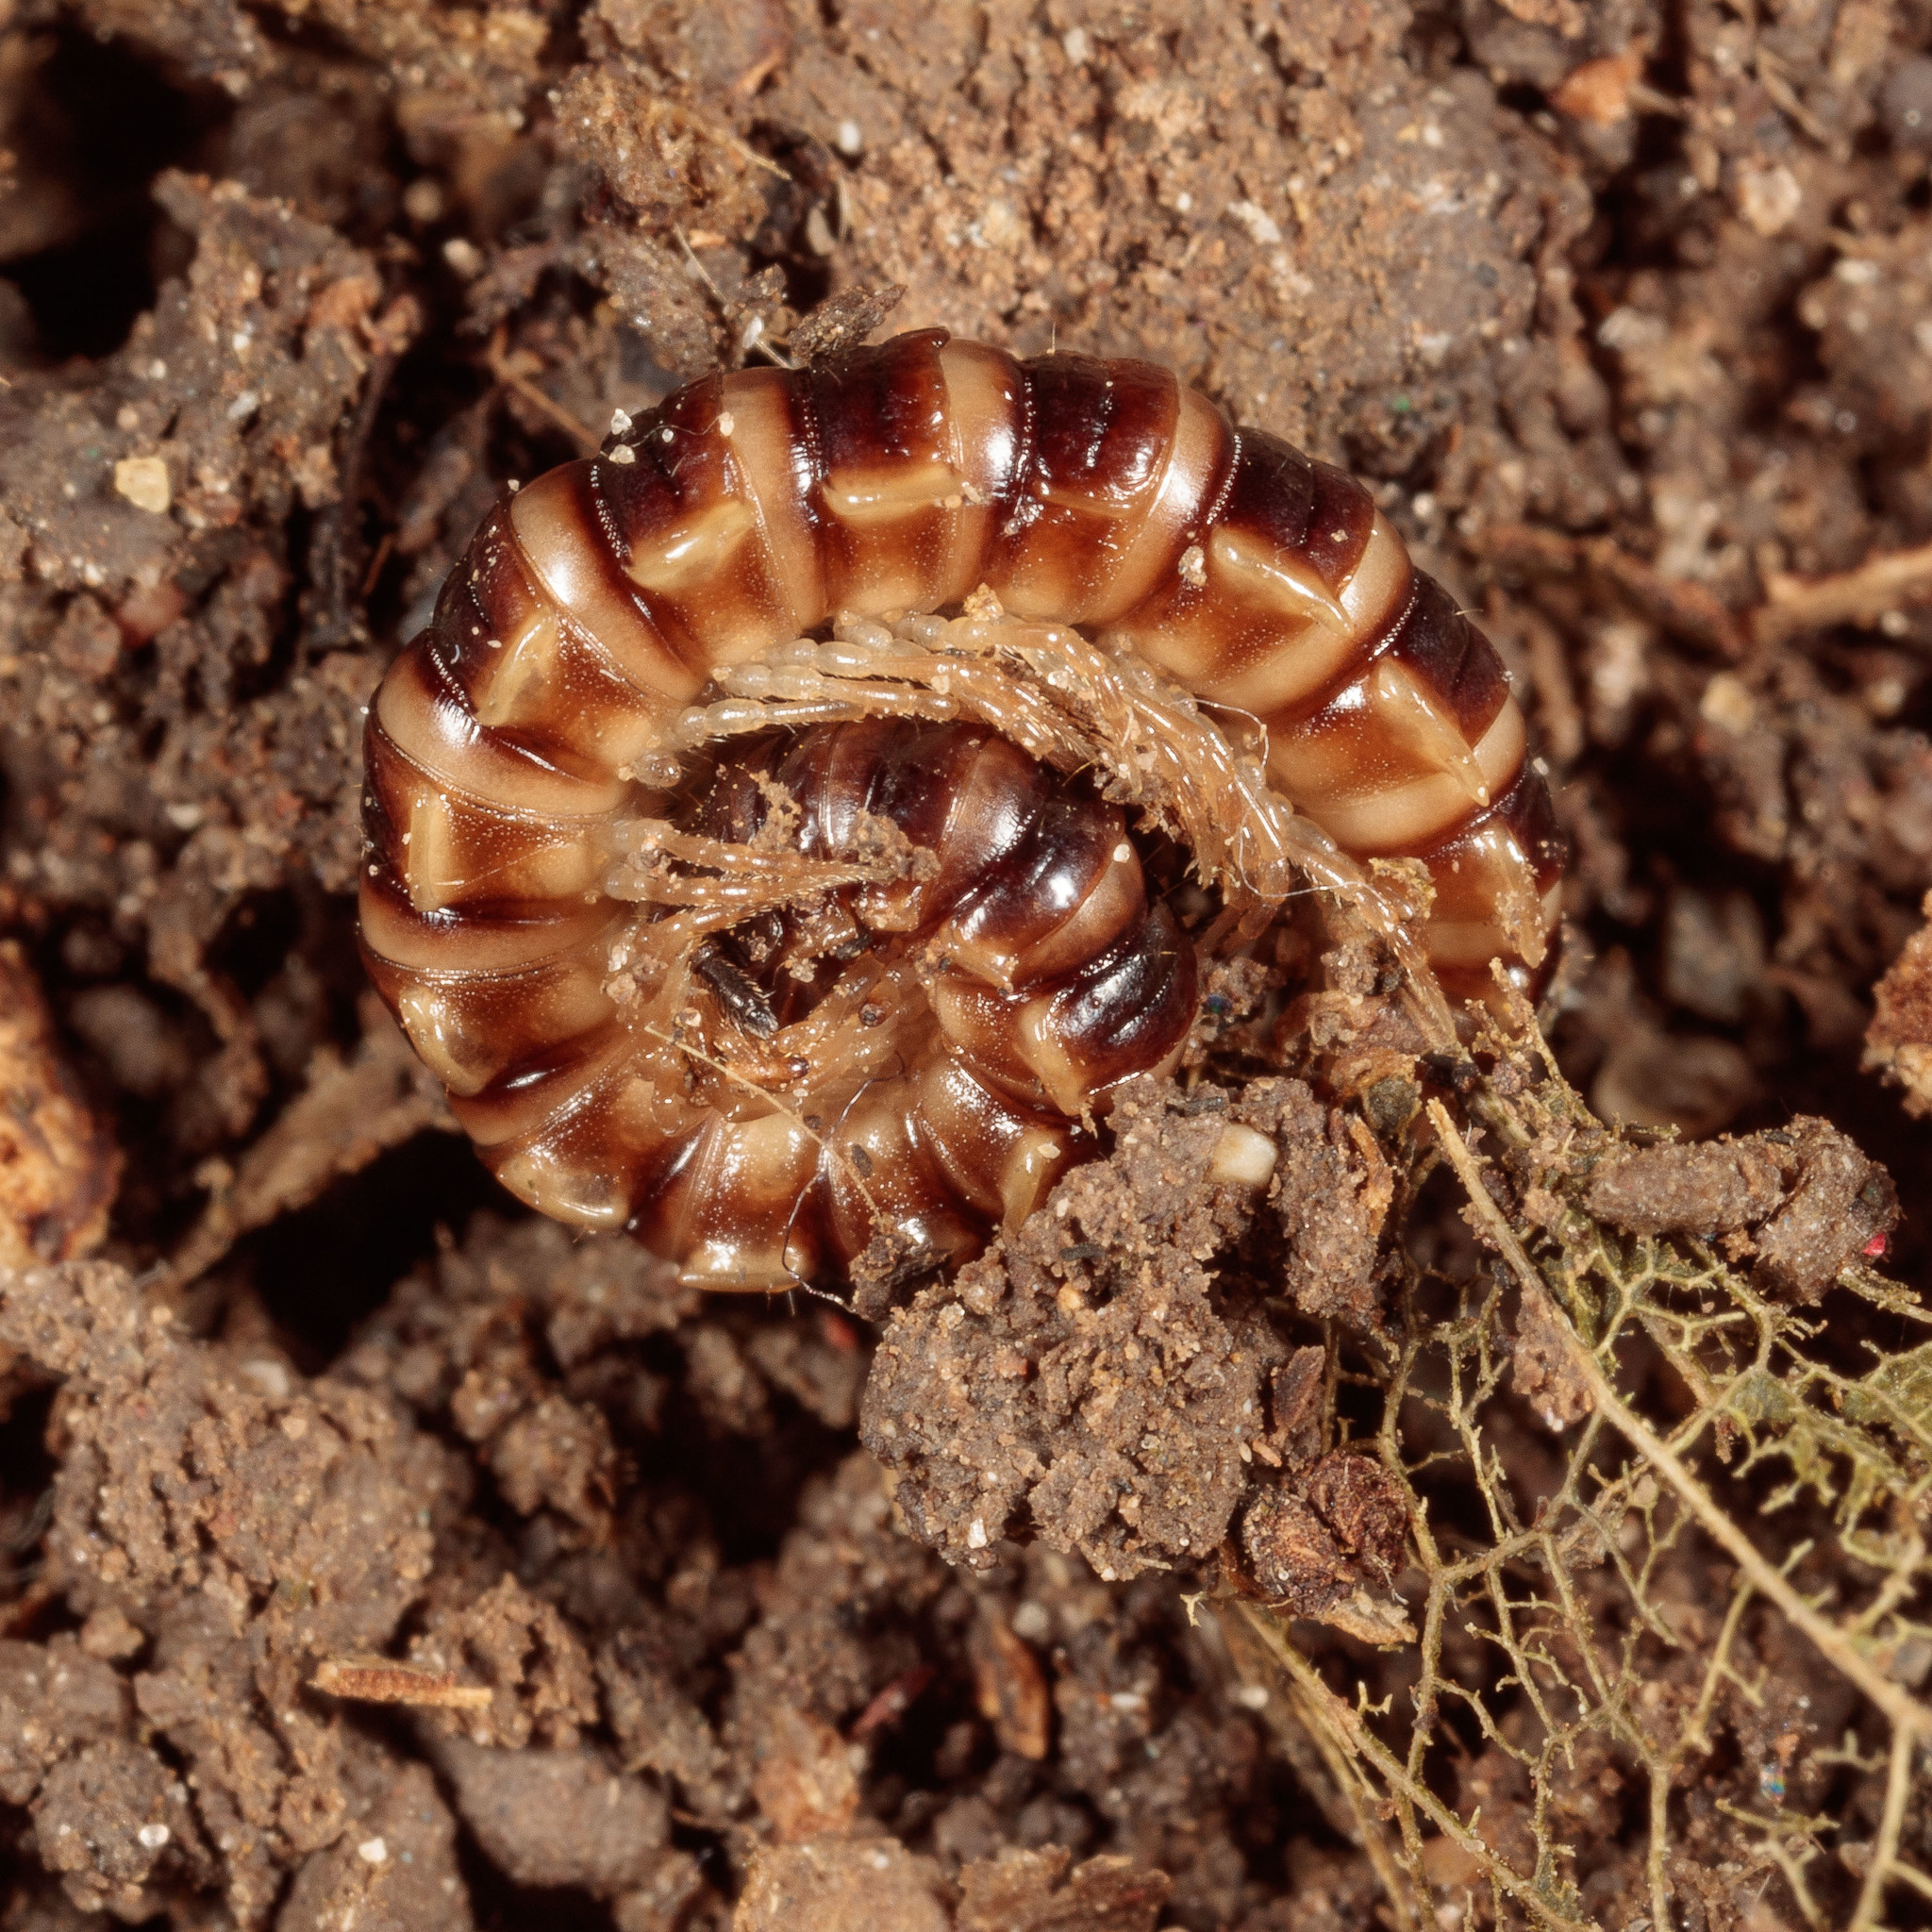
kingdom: Animalia
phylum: Arthropoda
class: Diplopoda
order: Polydesmida
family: Paradoxosomatidae
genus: Oxidus
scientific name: Oxidus gracilis
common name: Greenhouse millipede
